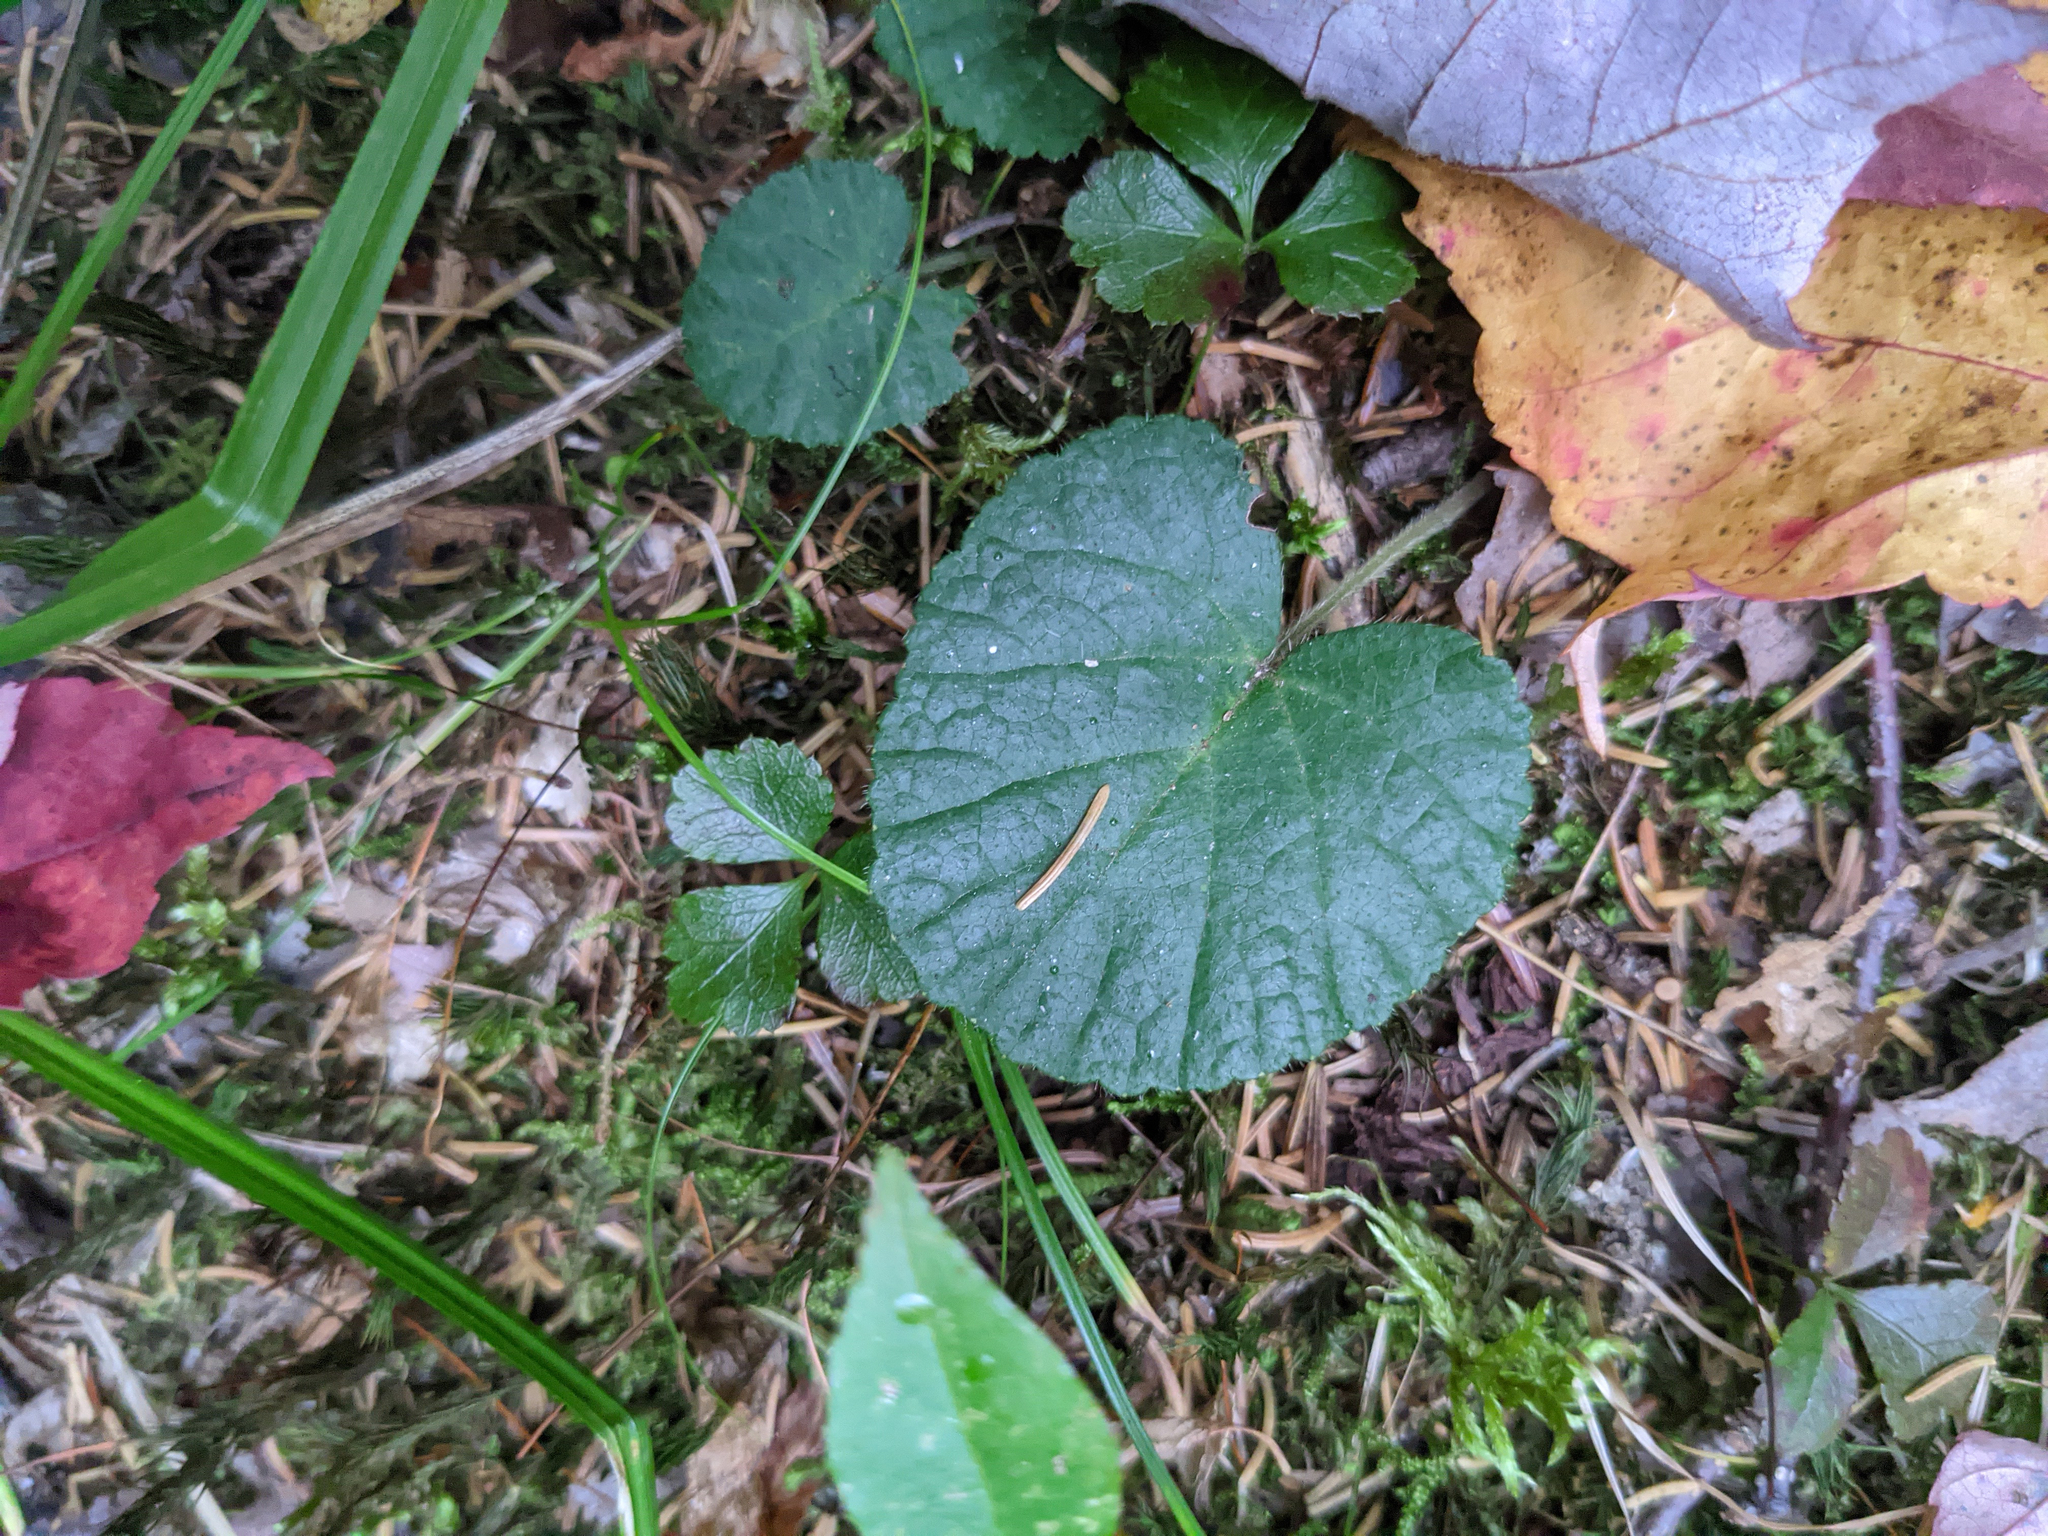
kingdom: Plantae
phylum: Tracheophyta
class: Magnoliopsida
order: Rosales
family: Rosaceae
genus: Dalibarda
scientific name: Dalibarda repens
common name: Dewdrop
